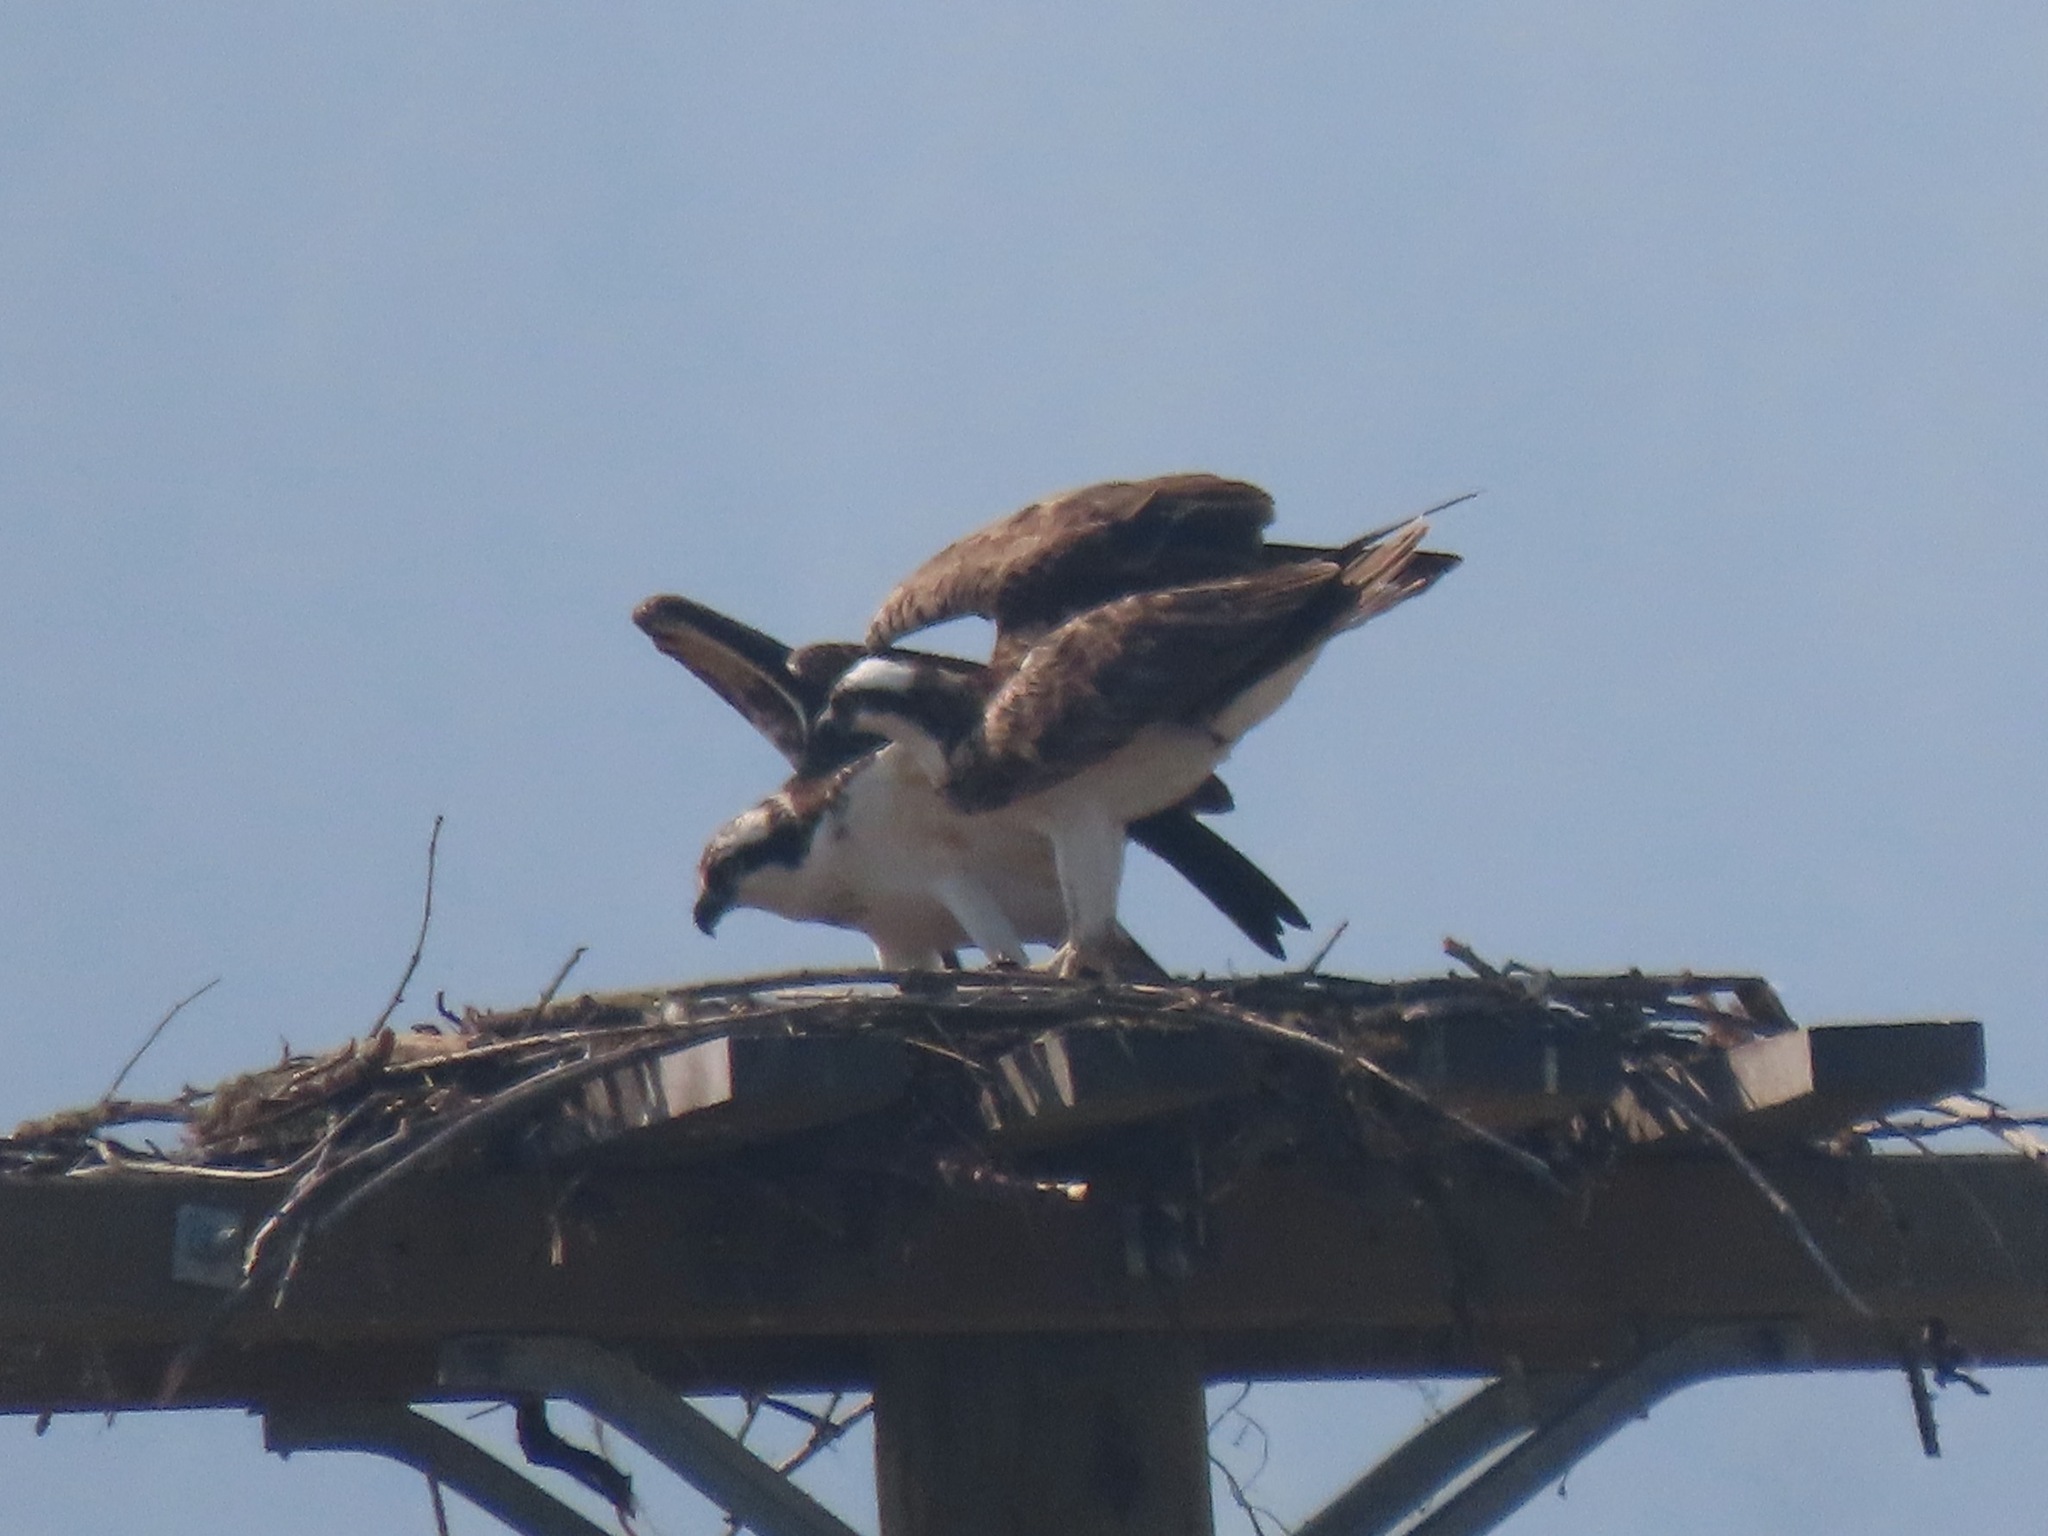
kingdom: Animalia
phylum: Chordata
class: Aves
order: Accipitriformes
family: Pandionidae
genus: Pandion
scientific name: Pandion haliaetus
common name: Osprey
